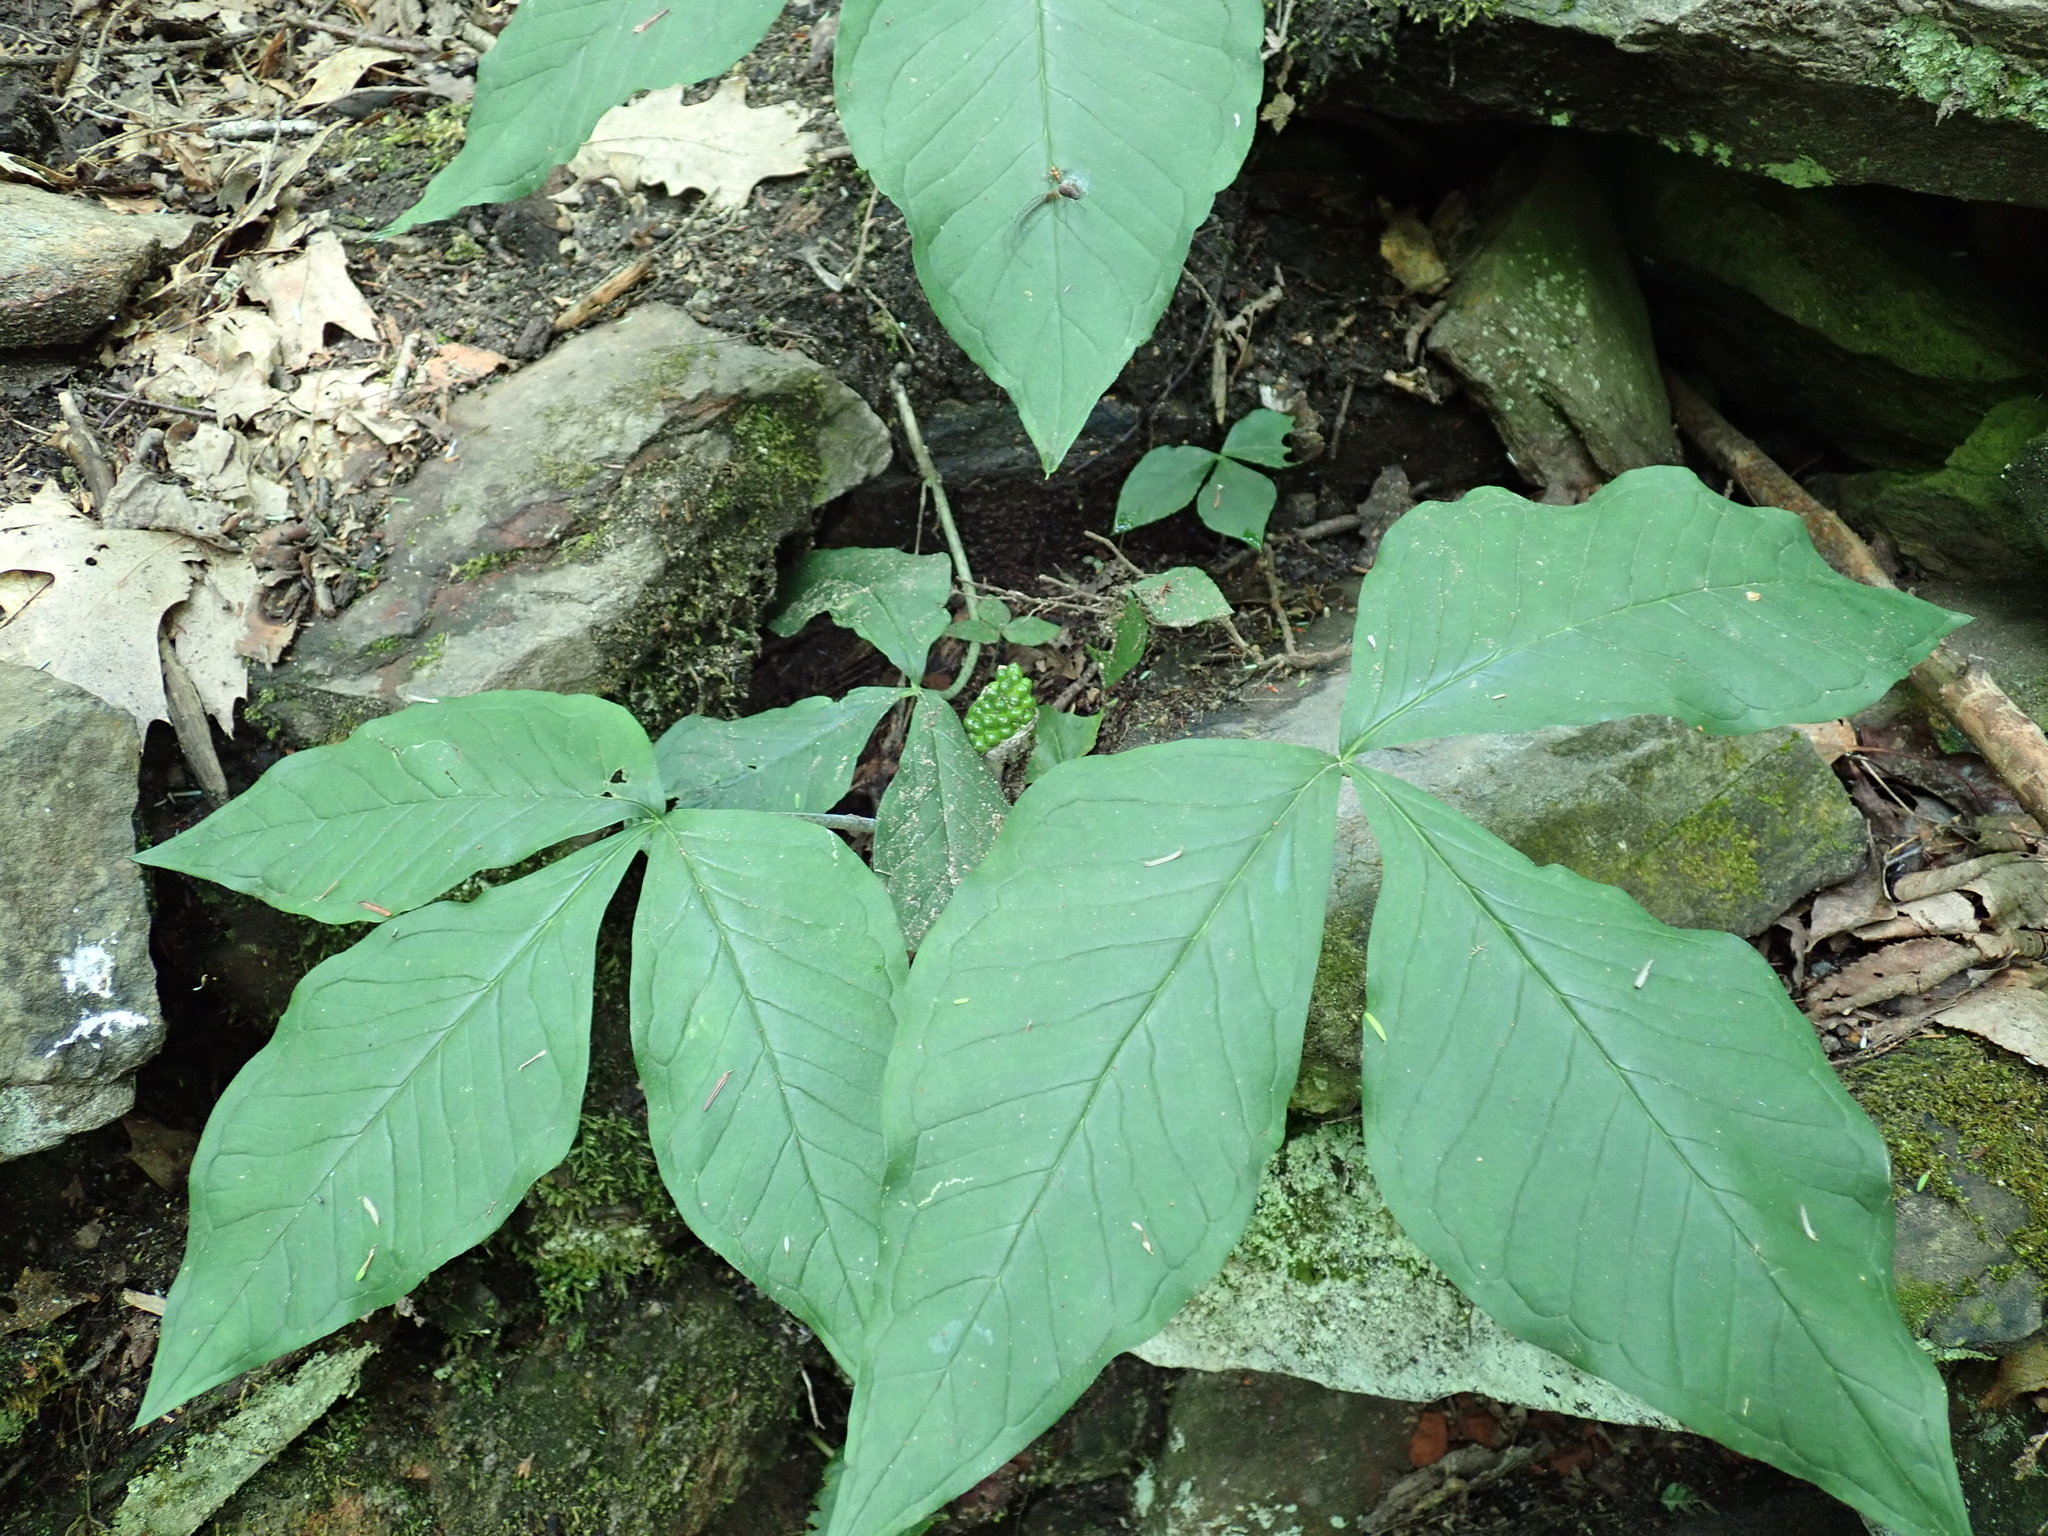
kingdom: Plantae
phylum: Tracheophyta
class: Liliopsida
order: Alismatales
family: Araceae
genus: Arisaema
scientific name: Arisaema triphyllum
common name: Jack-in-the-pulpit
